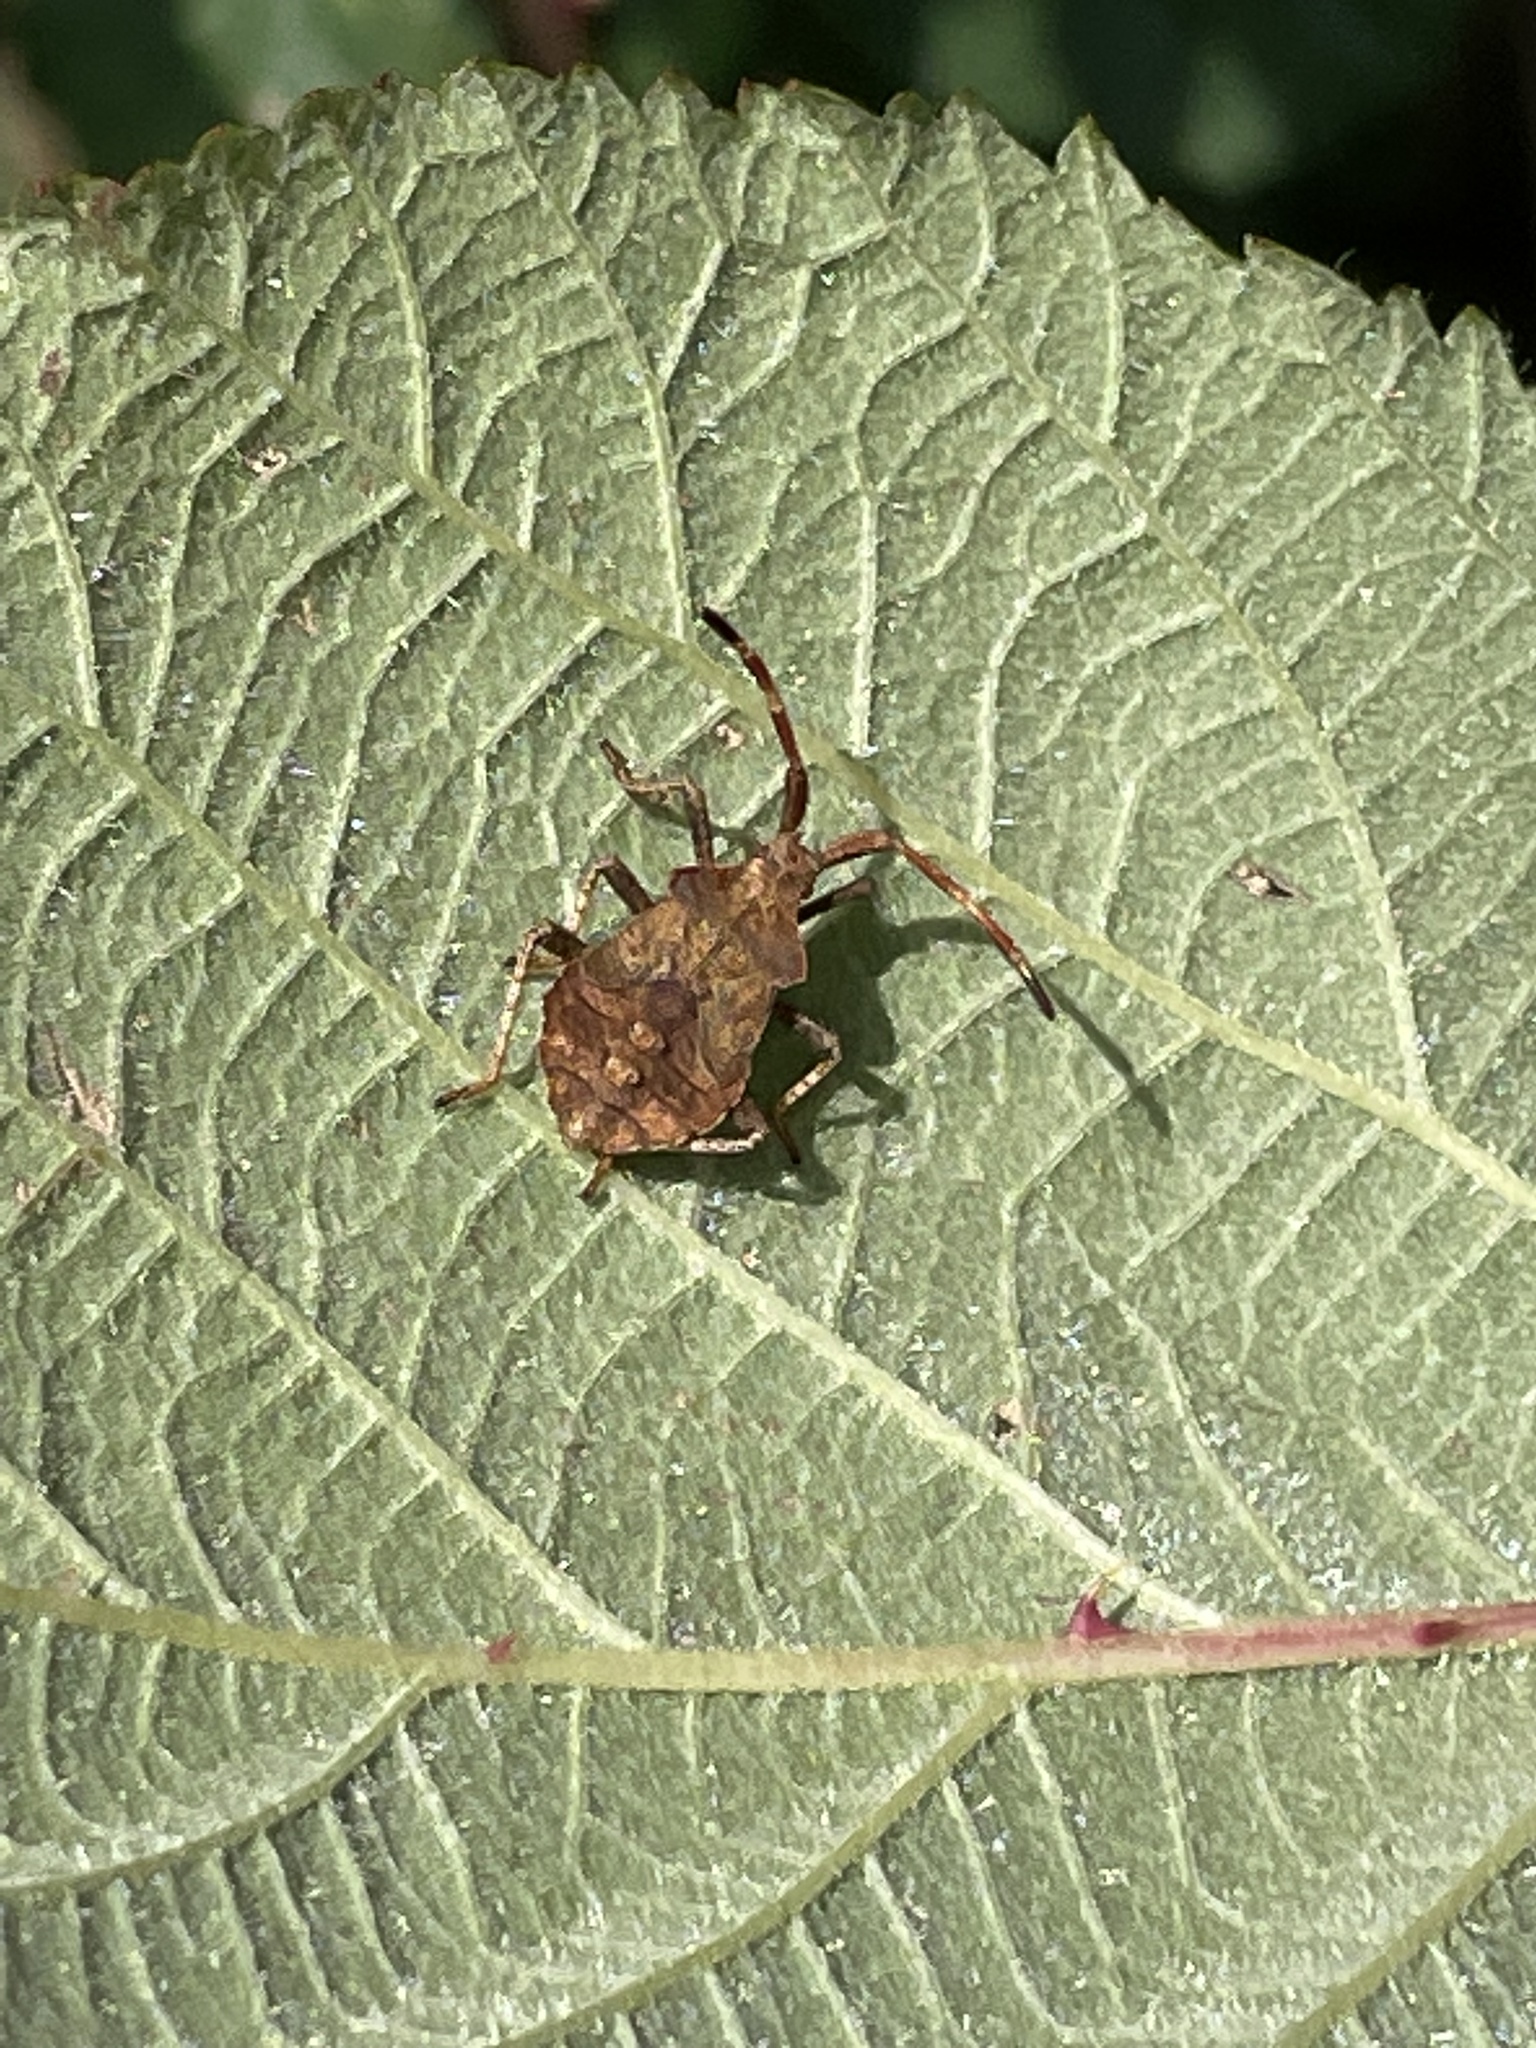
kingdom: Animalia
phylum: Arthropoda
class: Insecta
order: Hemiptera
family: Coreidae
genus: Coreus
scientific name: Coreus marginatus
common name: Dock bug
